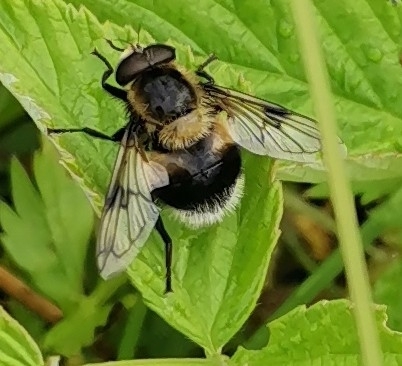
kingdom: Animalia
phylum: Arthropoda
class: Insecta
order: Diptera
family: Syrphidae
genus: Volucella
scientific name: Volucella bombylans
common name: Bumble bee hover fly
